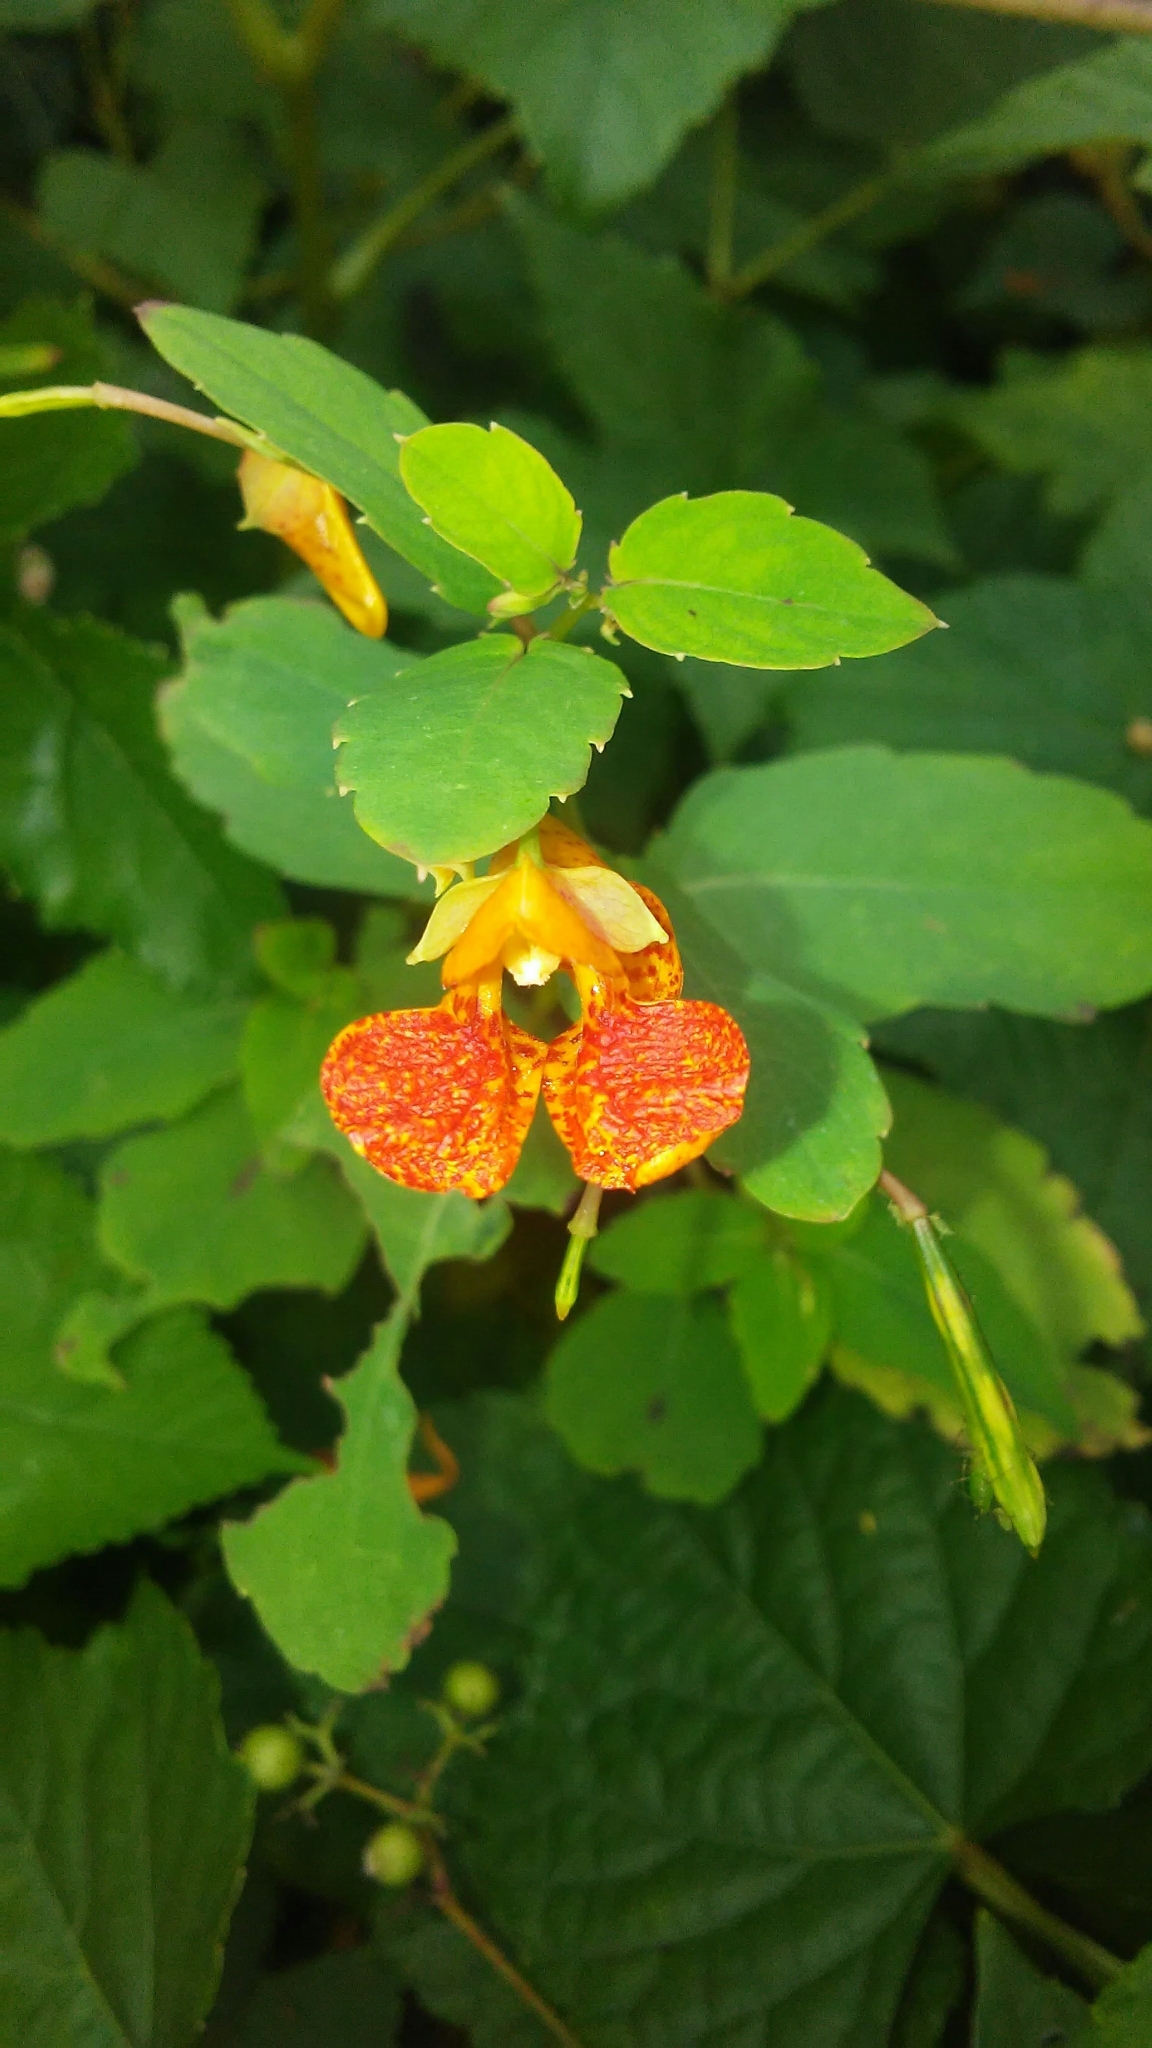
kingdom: Plantae
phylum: Tracheophyta
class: Magnoliopsida
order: Ericales
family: Balsaminaceae
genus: Impatiens
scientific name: Impatiens capensis
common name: Orange balsam
